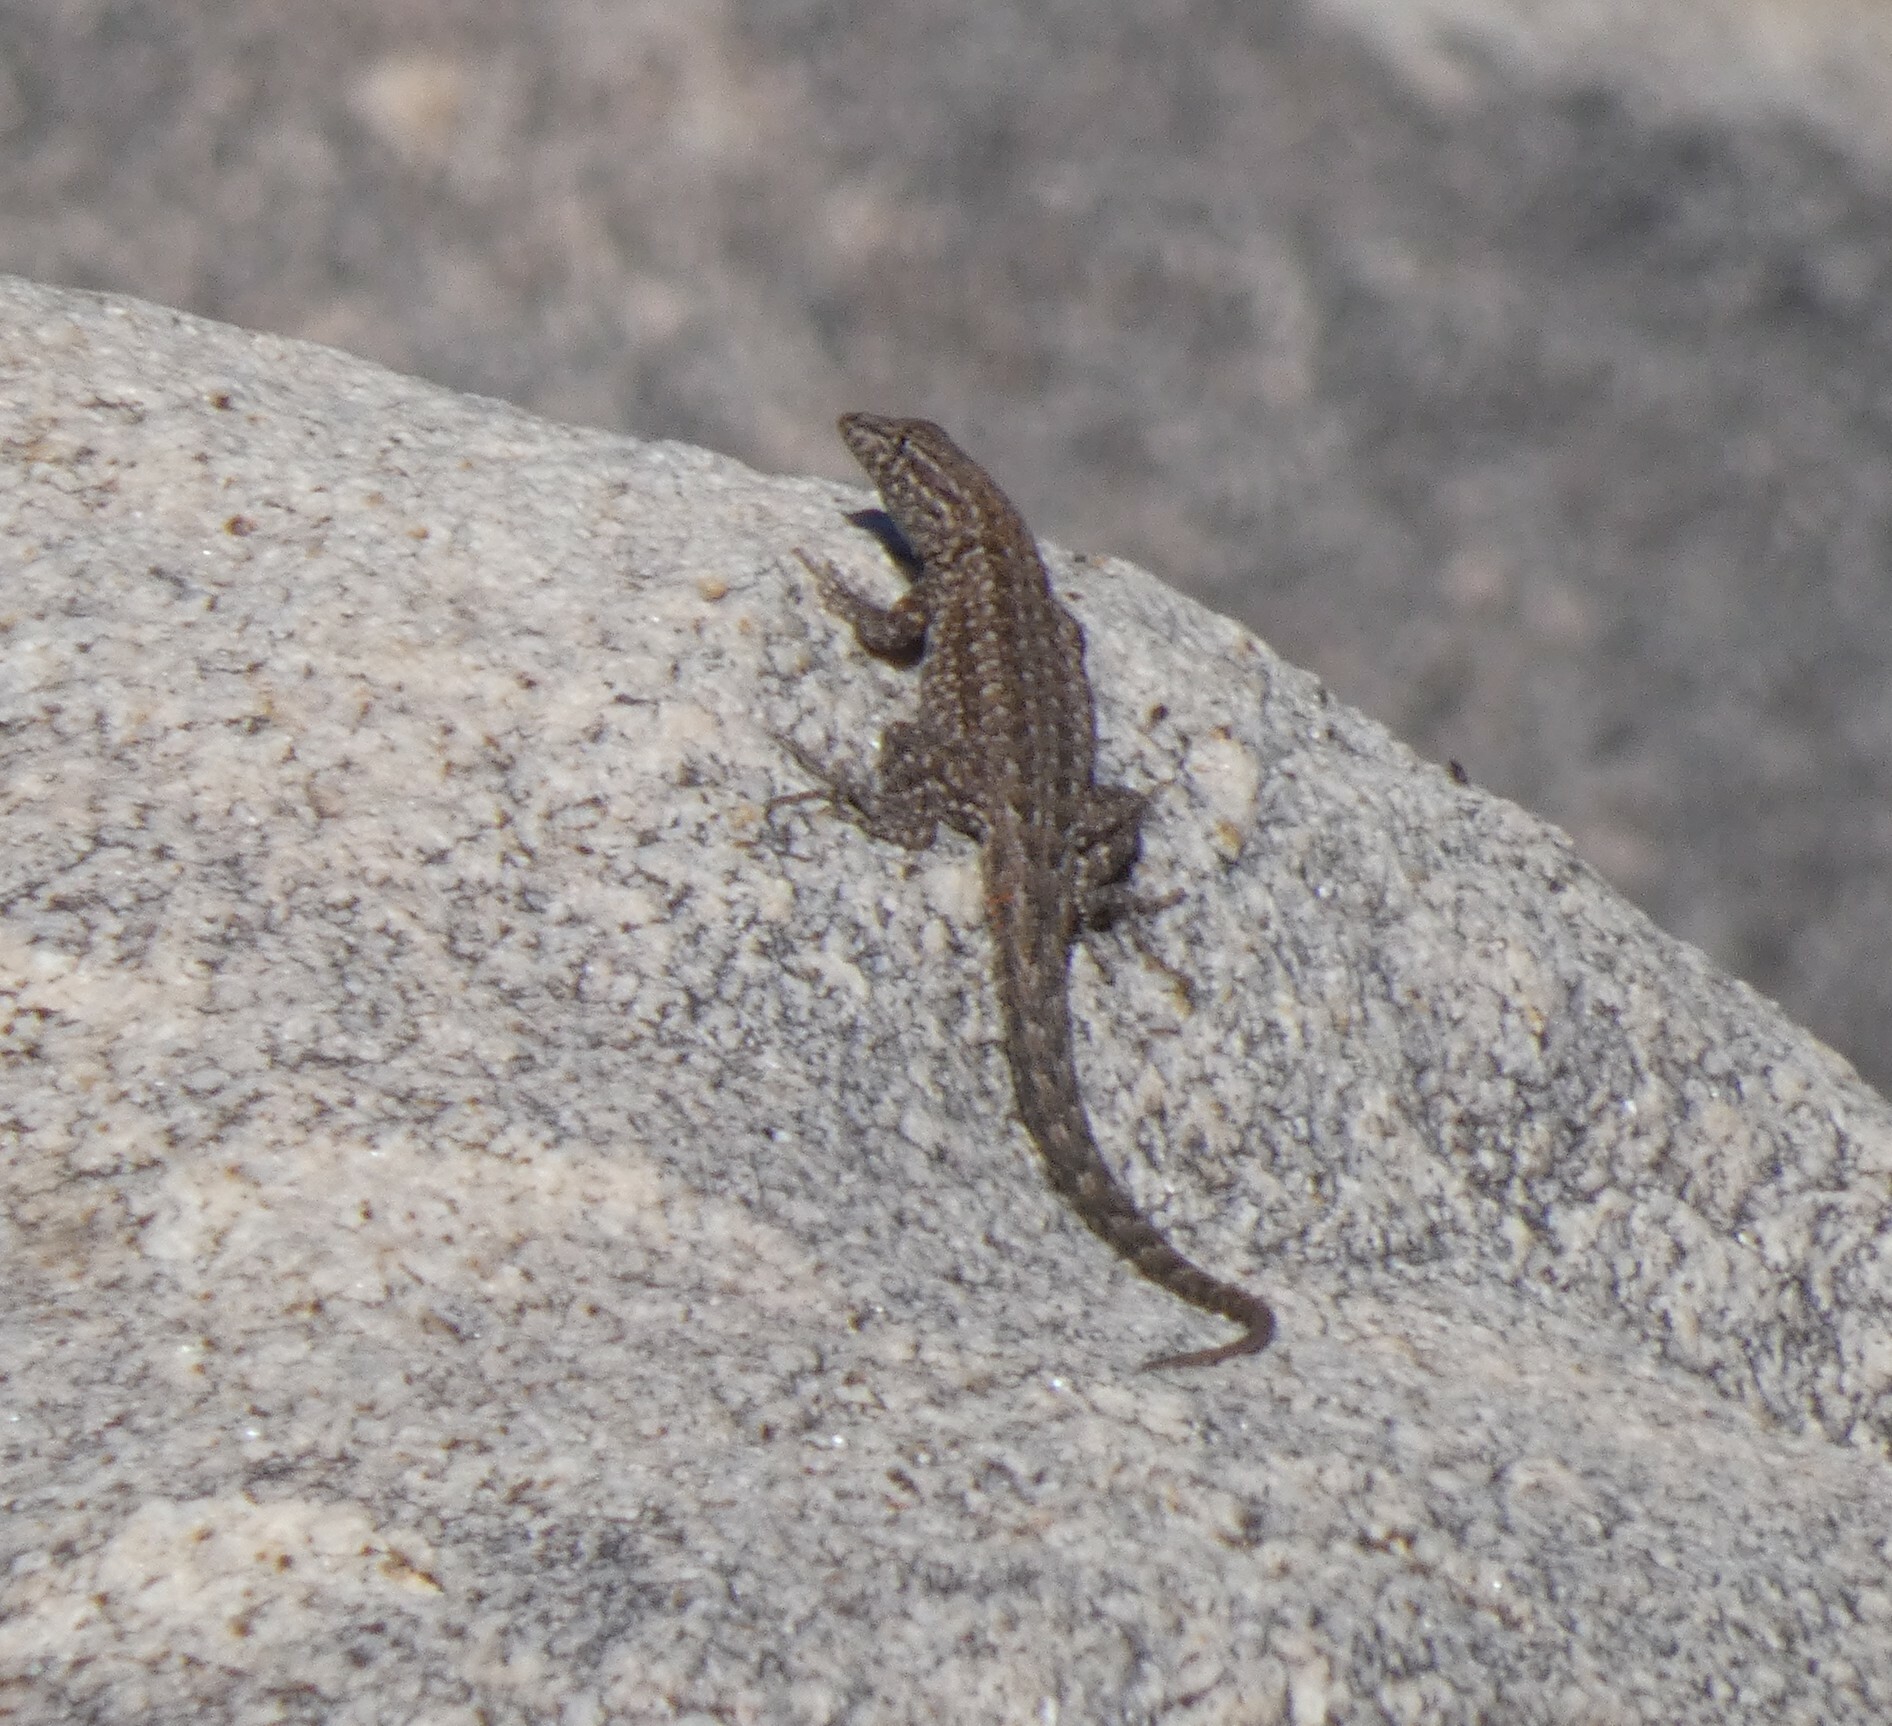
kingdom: Animalia
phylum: Chordata
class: Squamata
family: Phrynosomatidae
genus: Uta
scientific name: Uta stansburiana
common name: Side-blotched lizard
